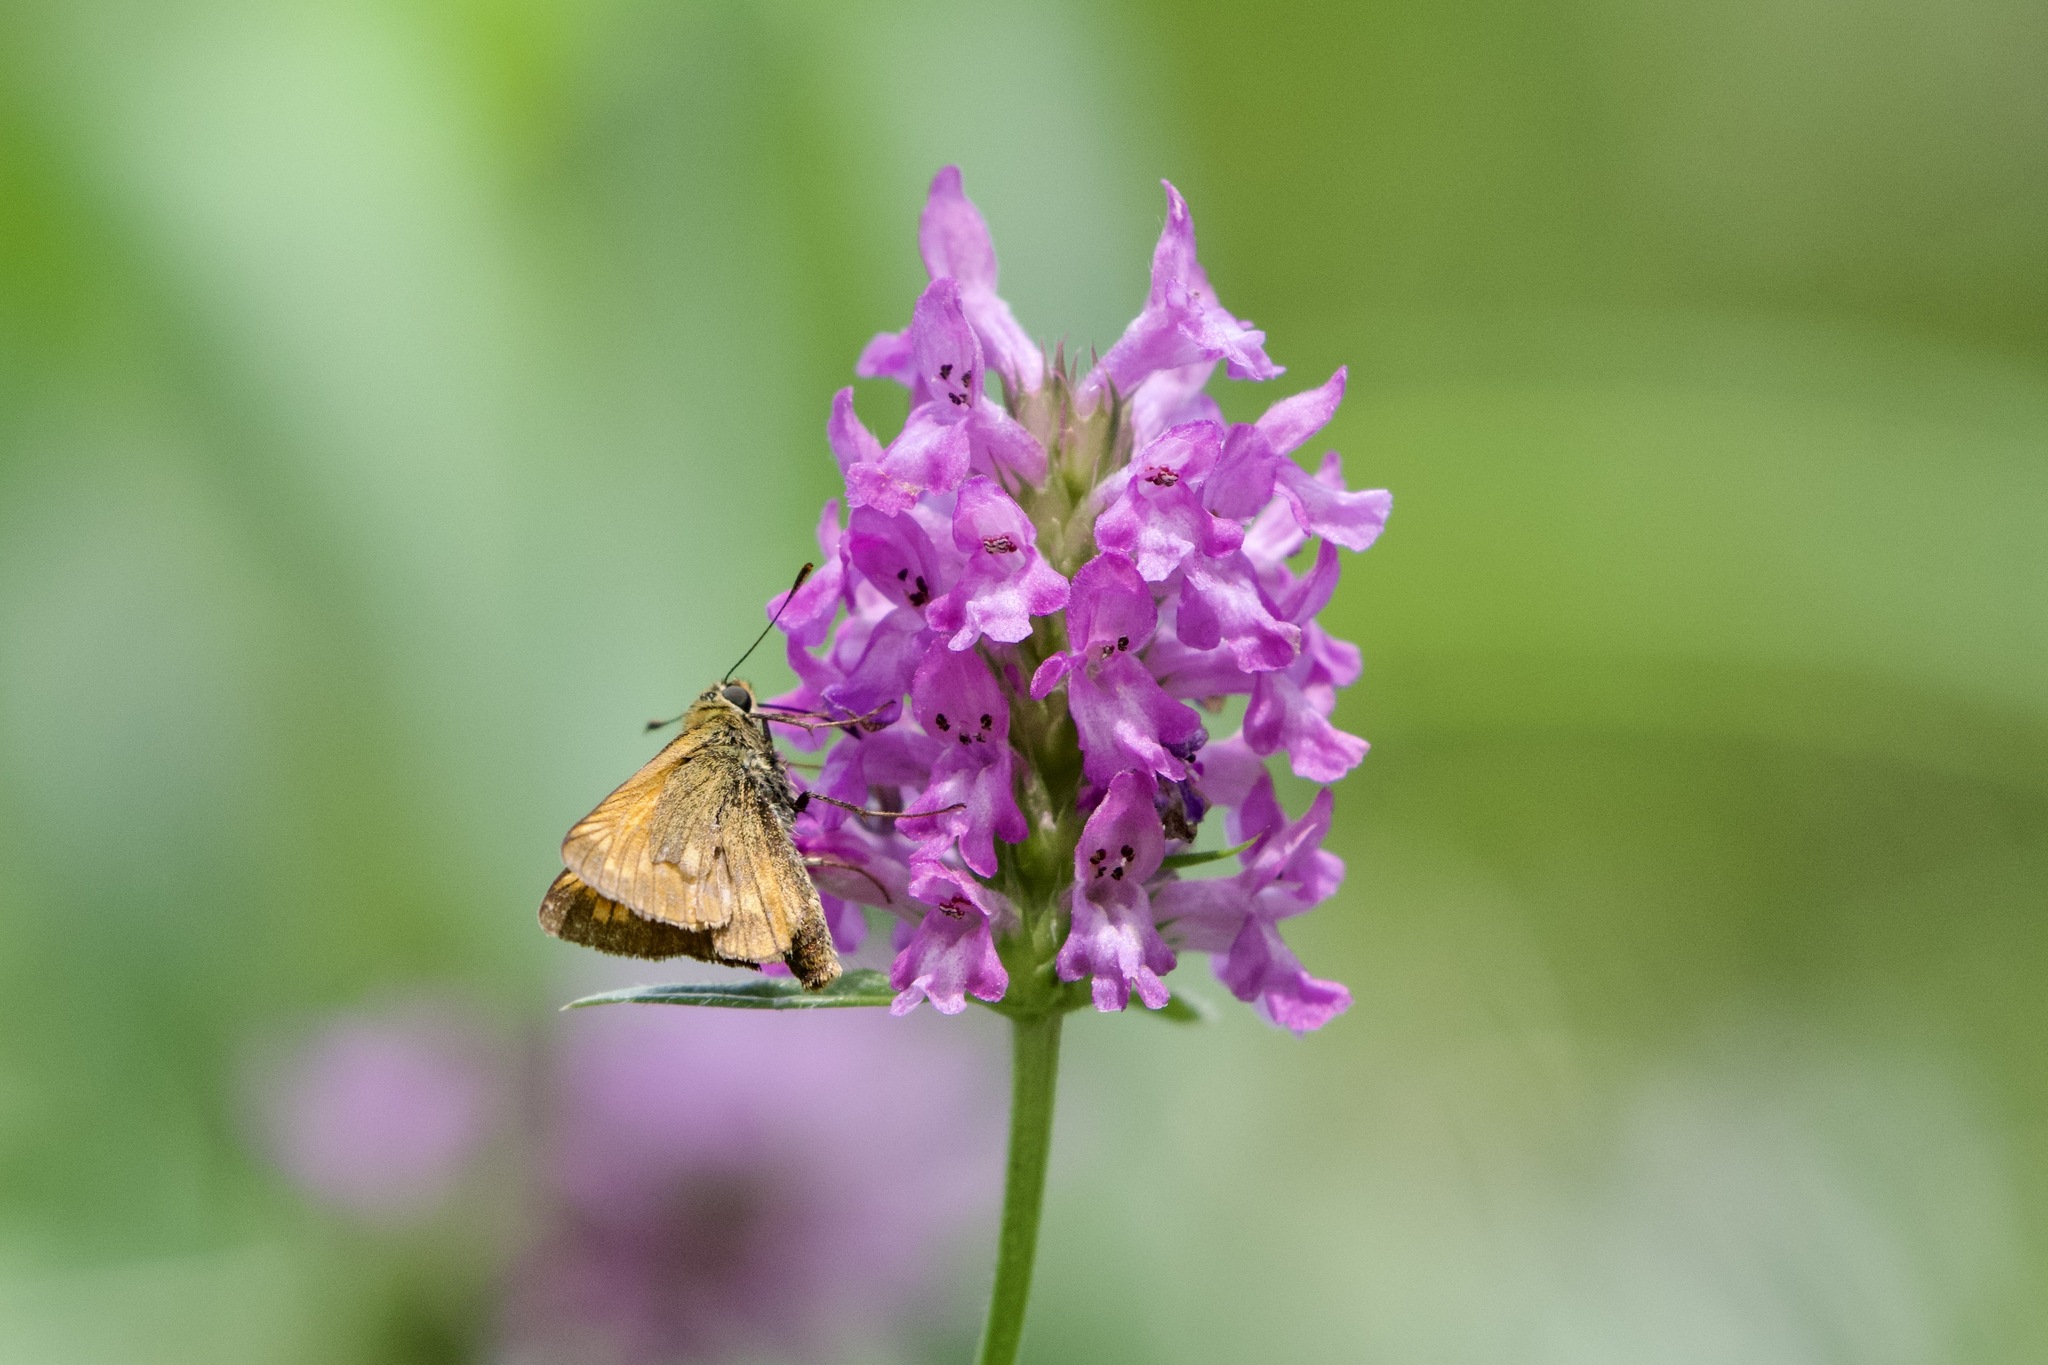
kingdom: Animalia
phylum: Arthropoda
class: Insecta
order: Lepidoptera
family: Hesperiidae
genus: Ochlodes
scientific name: Ochlodes venata
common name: Large skipper
